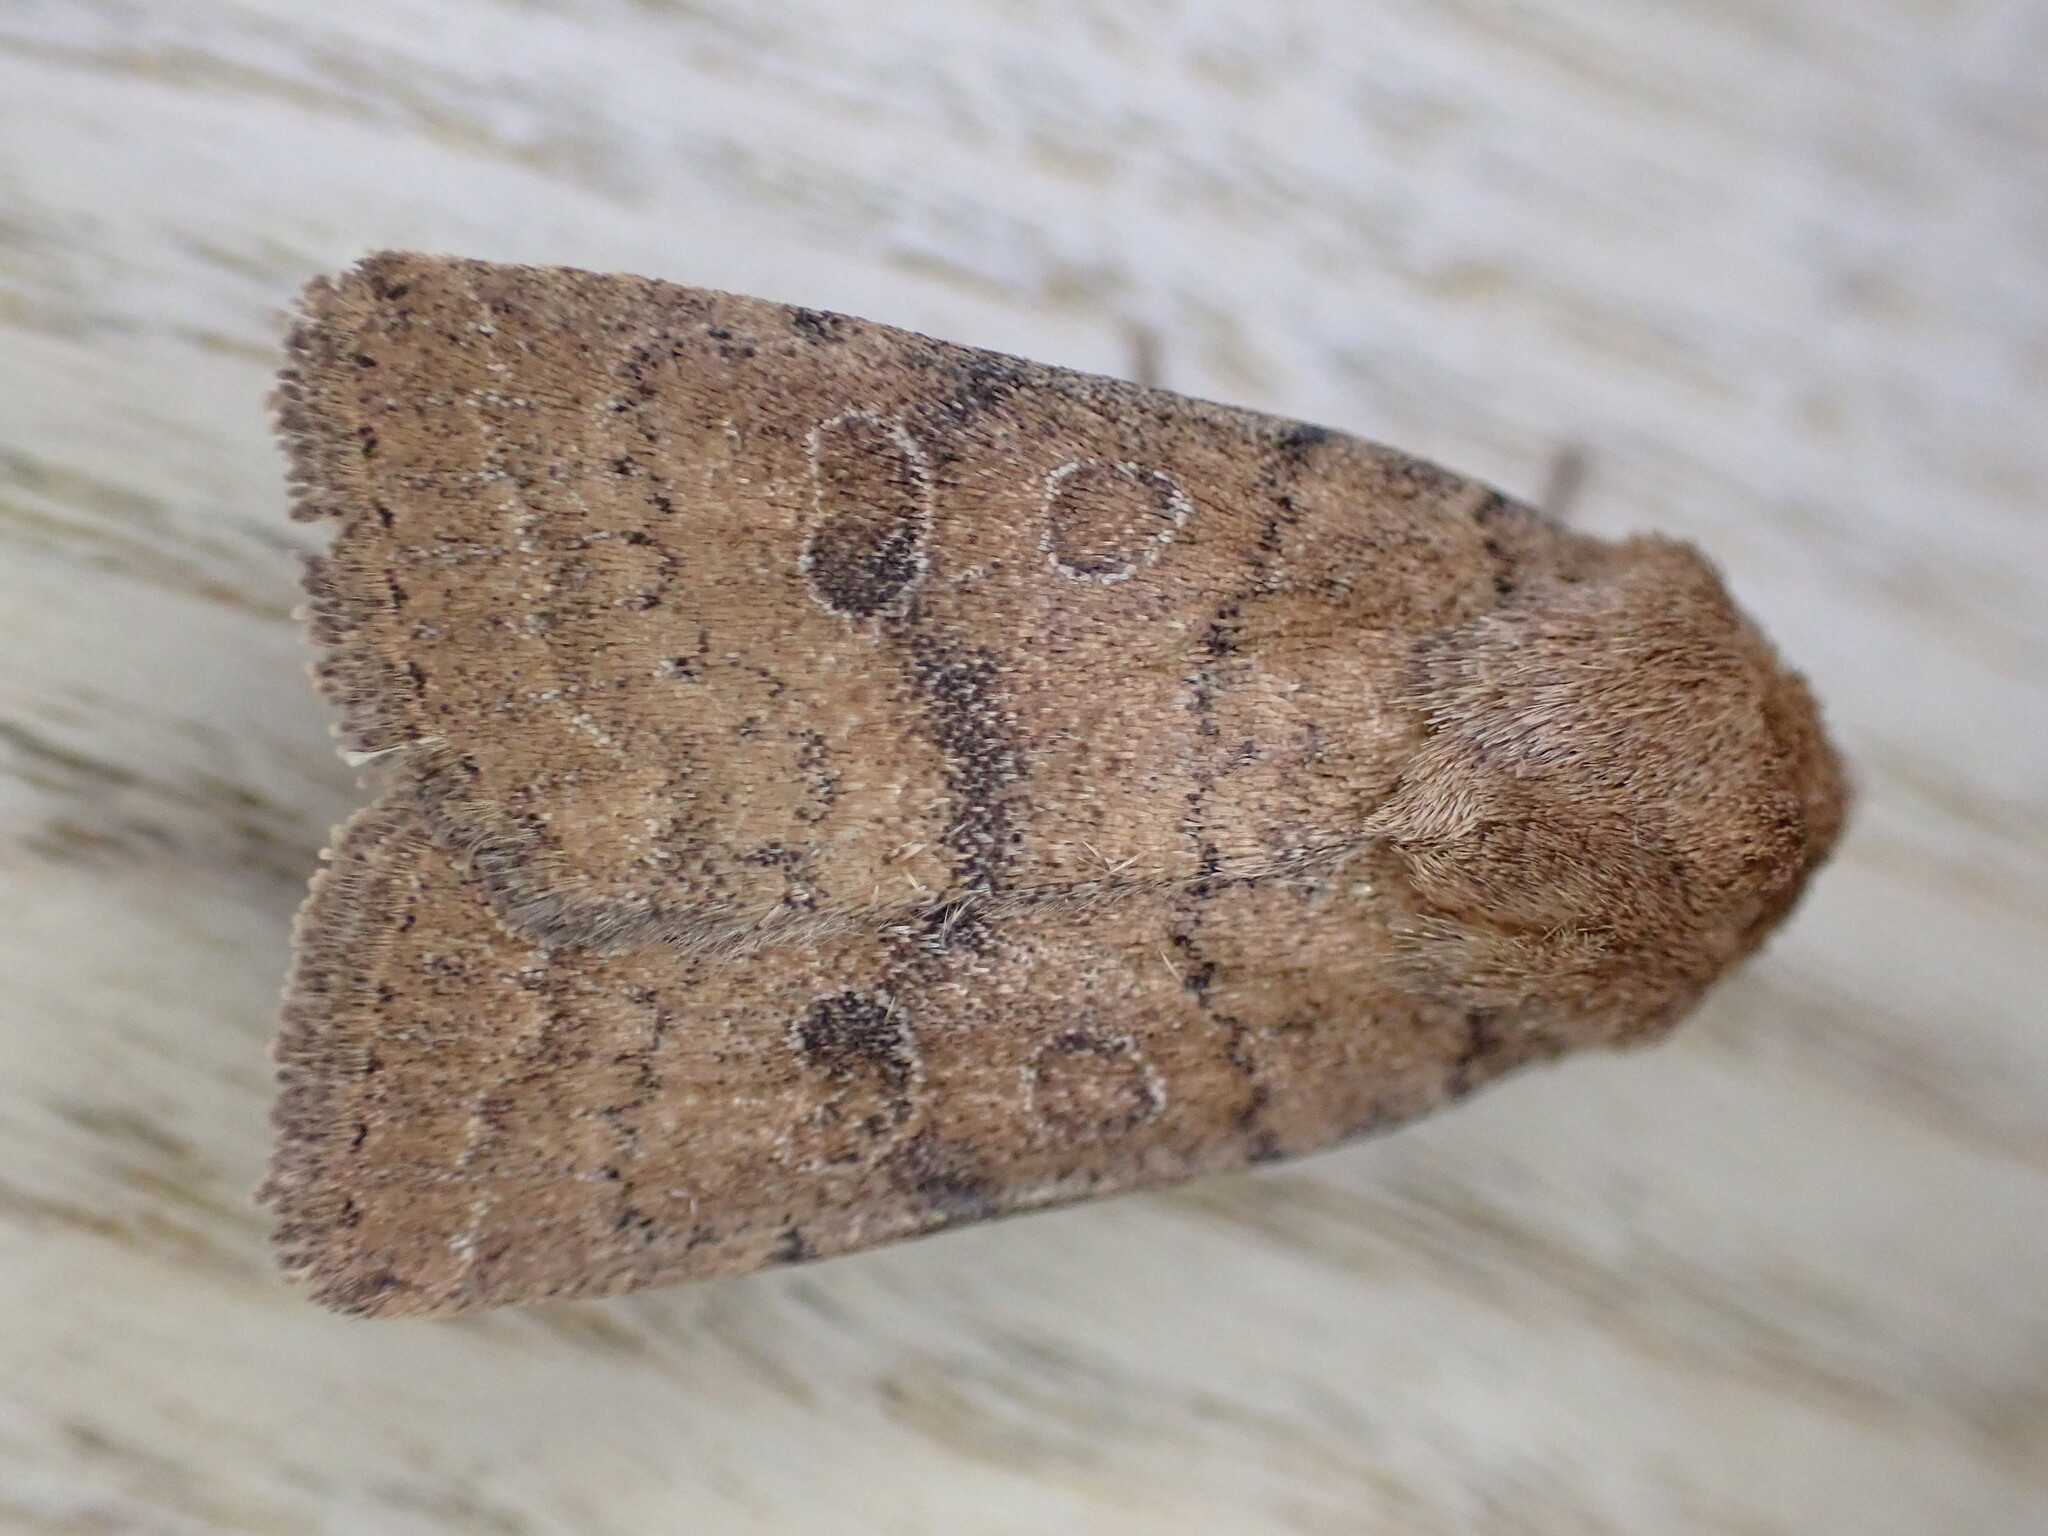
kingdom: Animalia
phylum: Arthropoda
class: Insecta
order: Lepidoptera
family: Noctuidae
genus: Hoplodrina
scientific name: Hoplodrina octogenaria
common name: Uncertain
